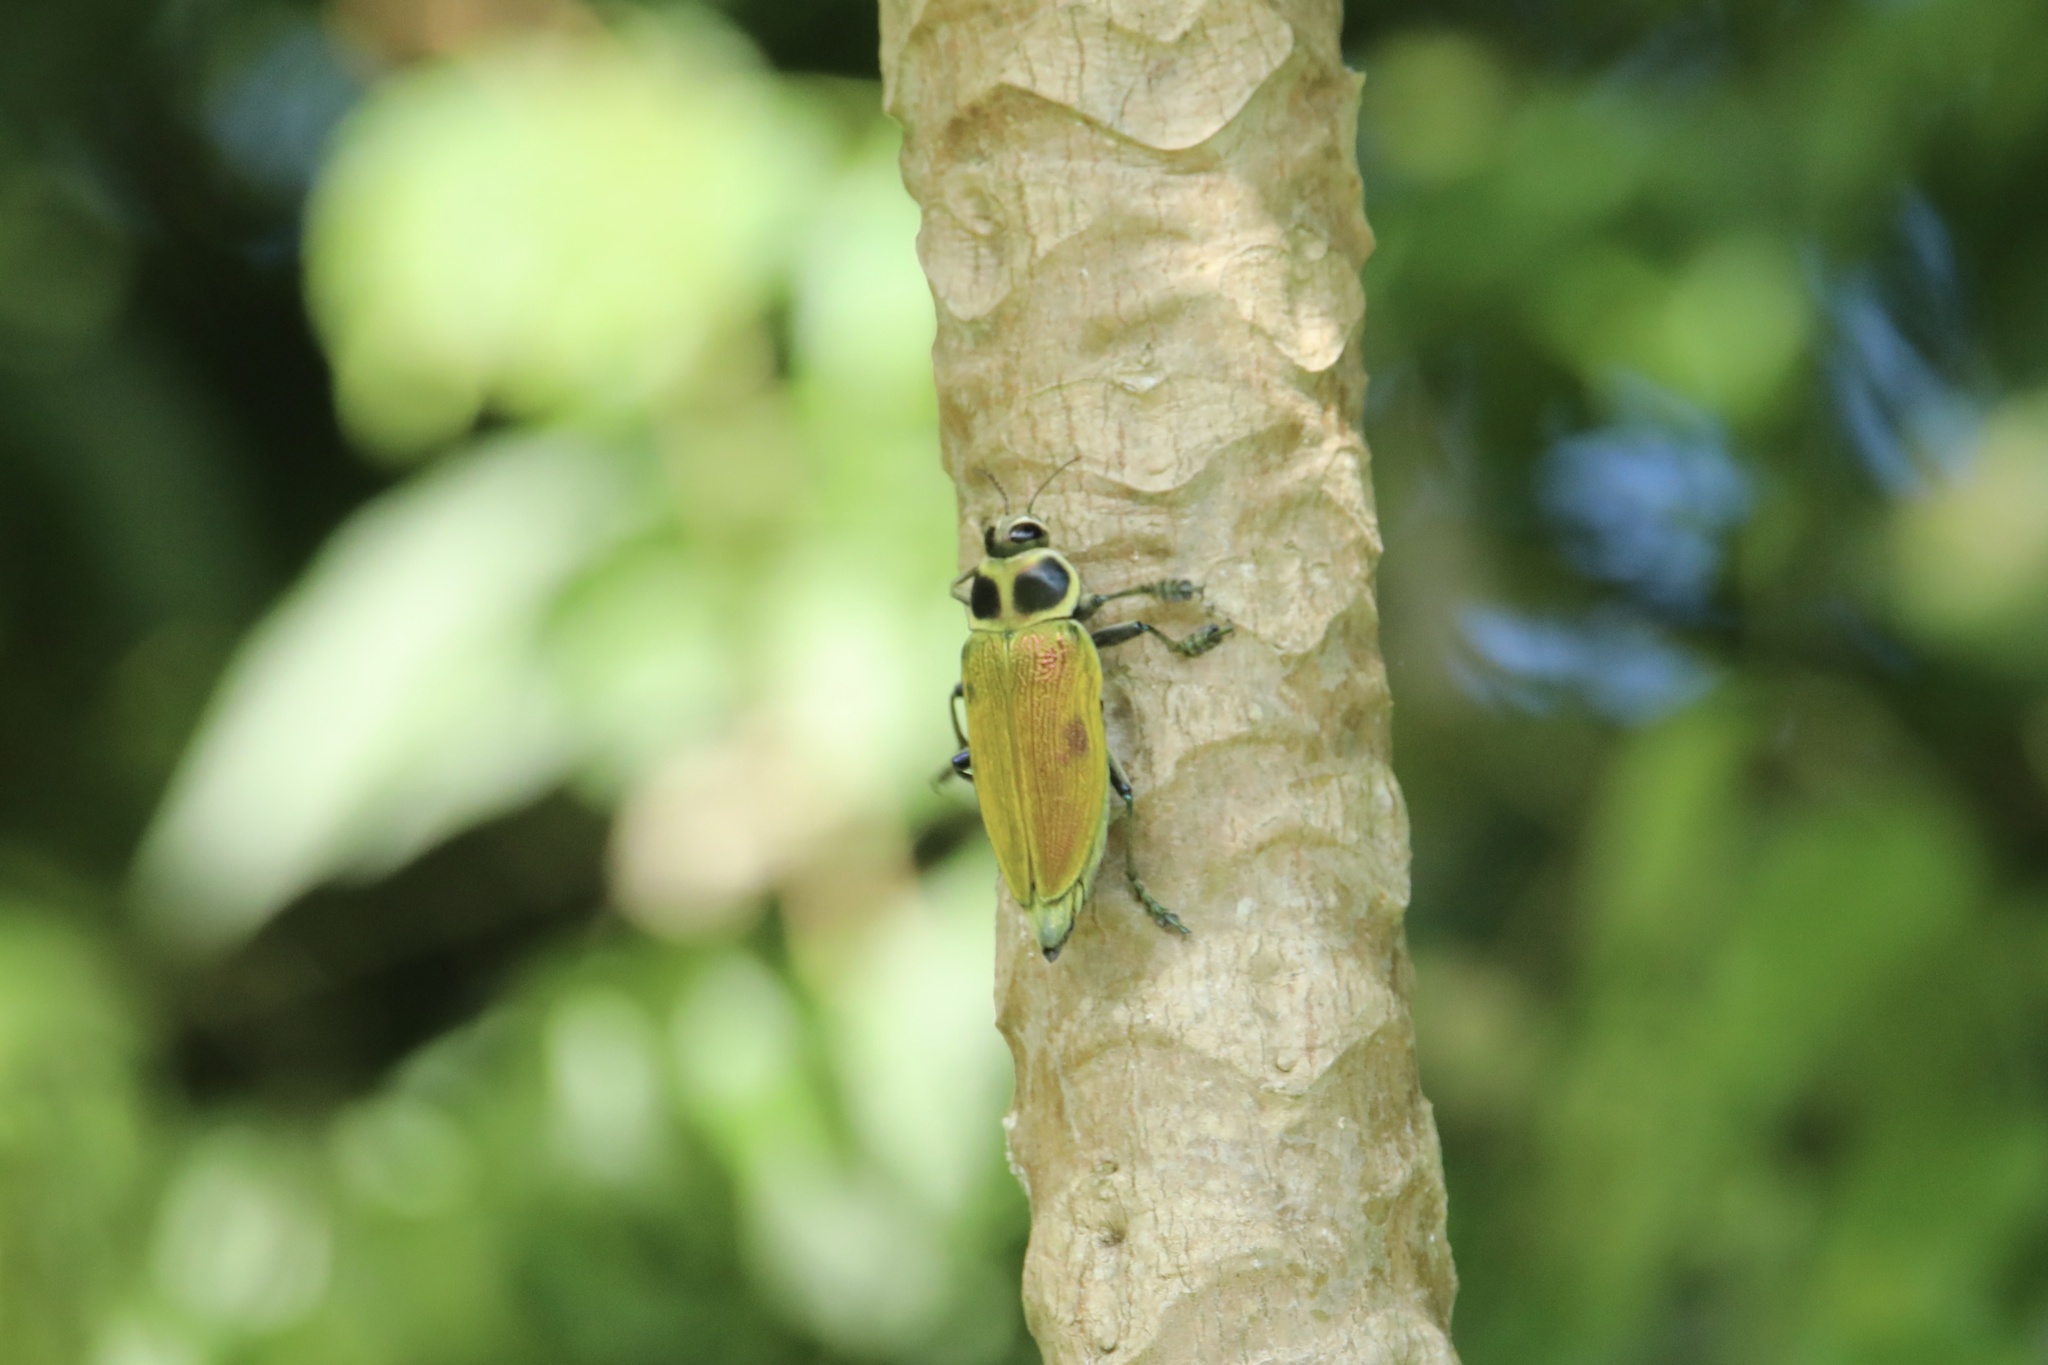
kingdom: Animalia
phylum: Arthropoda
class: Insecta
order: Coleoptera
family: Buprestidae
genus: Euchroma
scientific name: Euchroma giganteum
